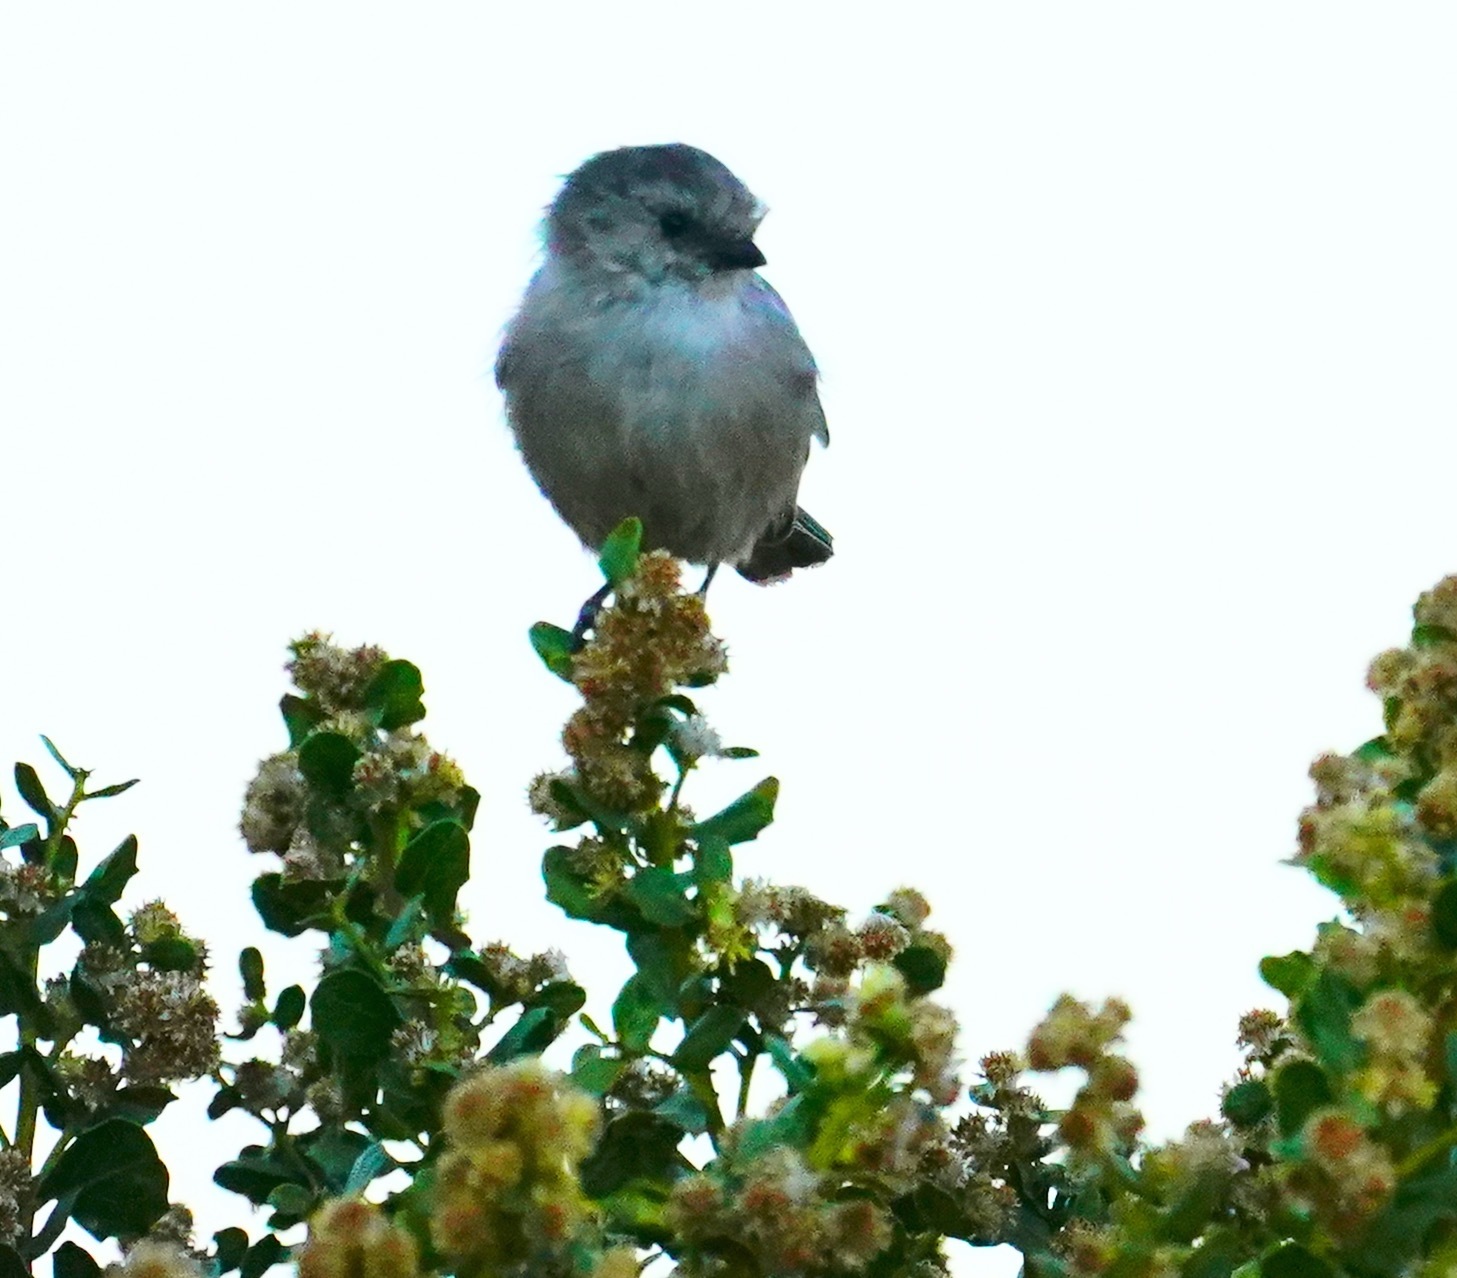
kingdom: Animalia
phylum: Chordata
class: Aves
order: Passeriformes
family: Aegithalidae
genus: Psaltriparus
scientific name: Psaltriparus minimus
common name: American bushtit
